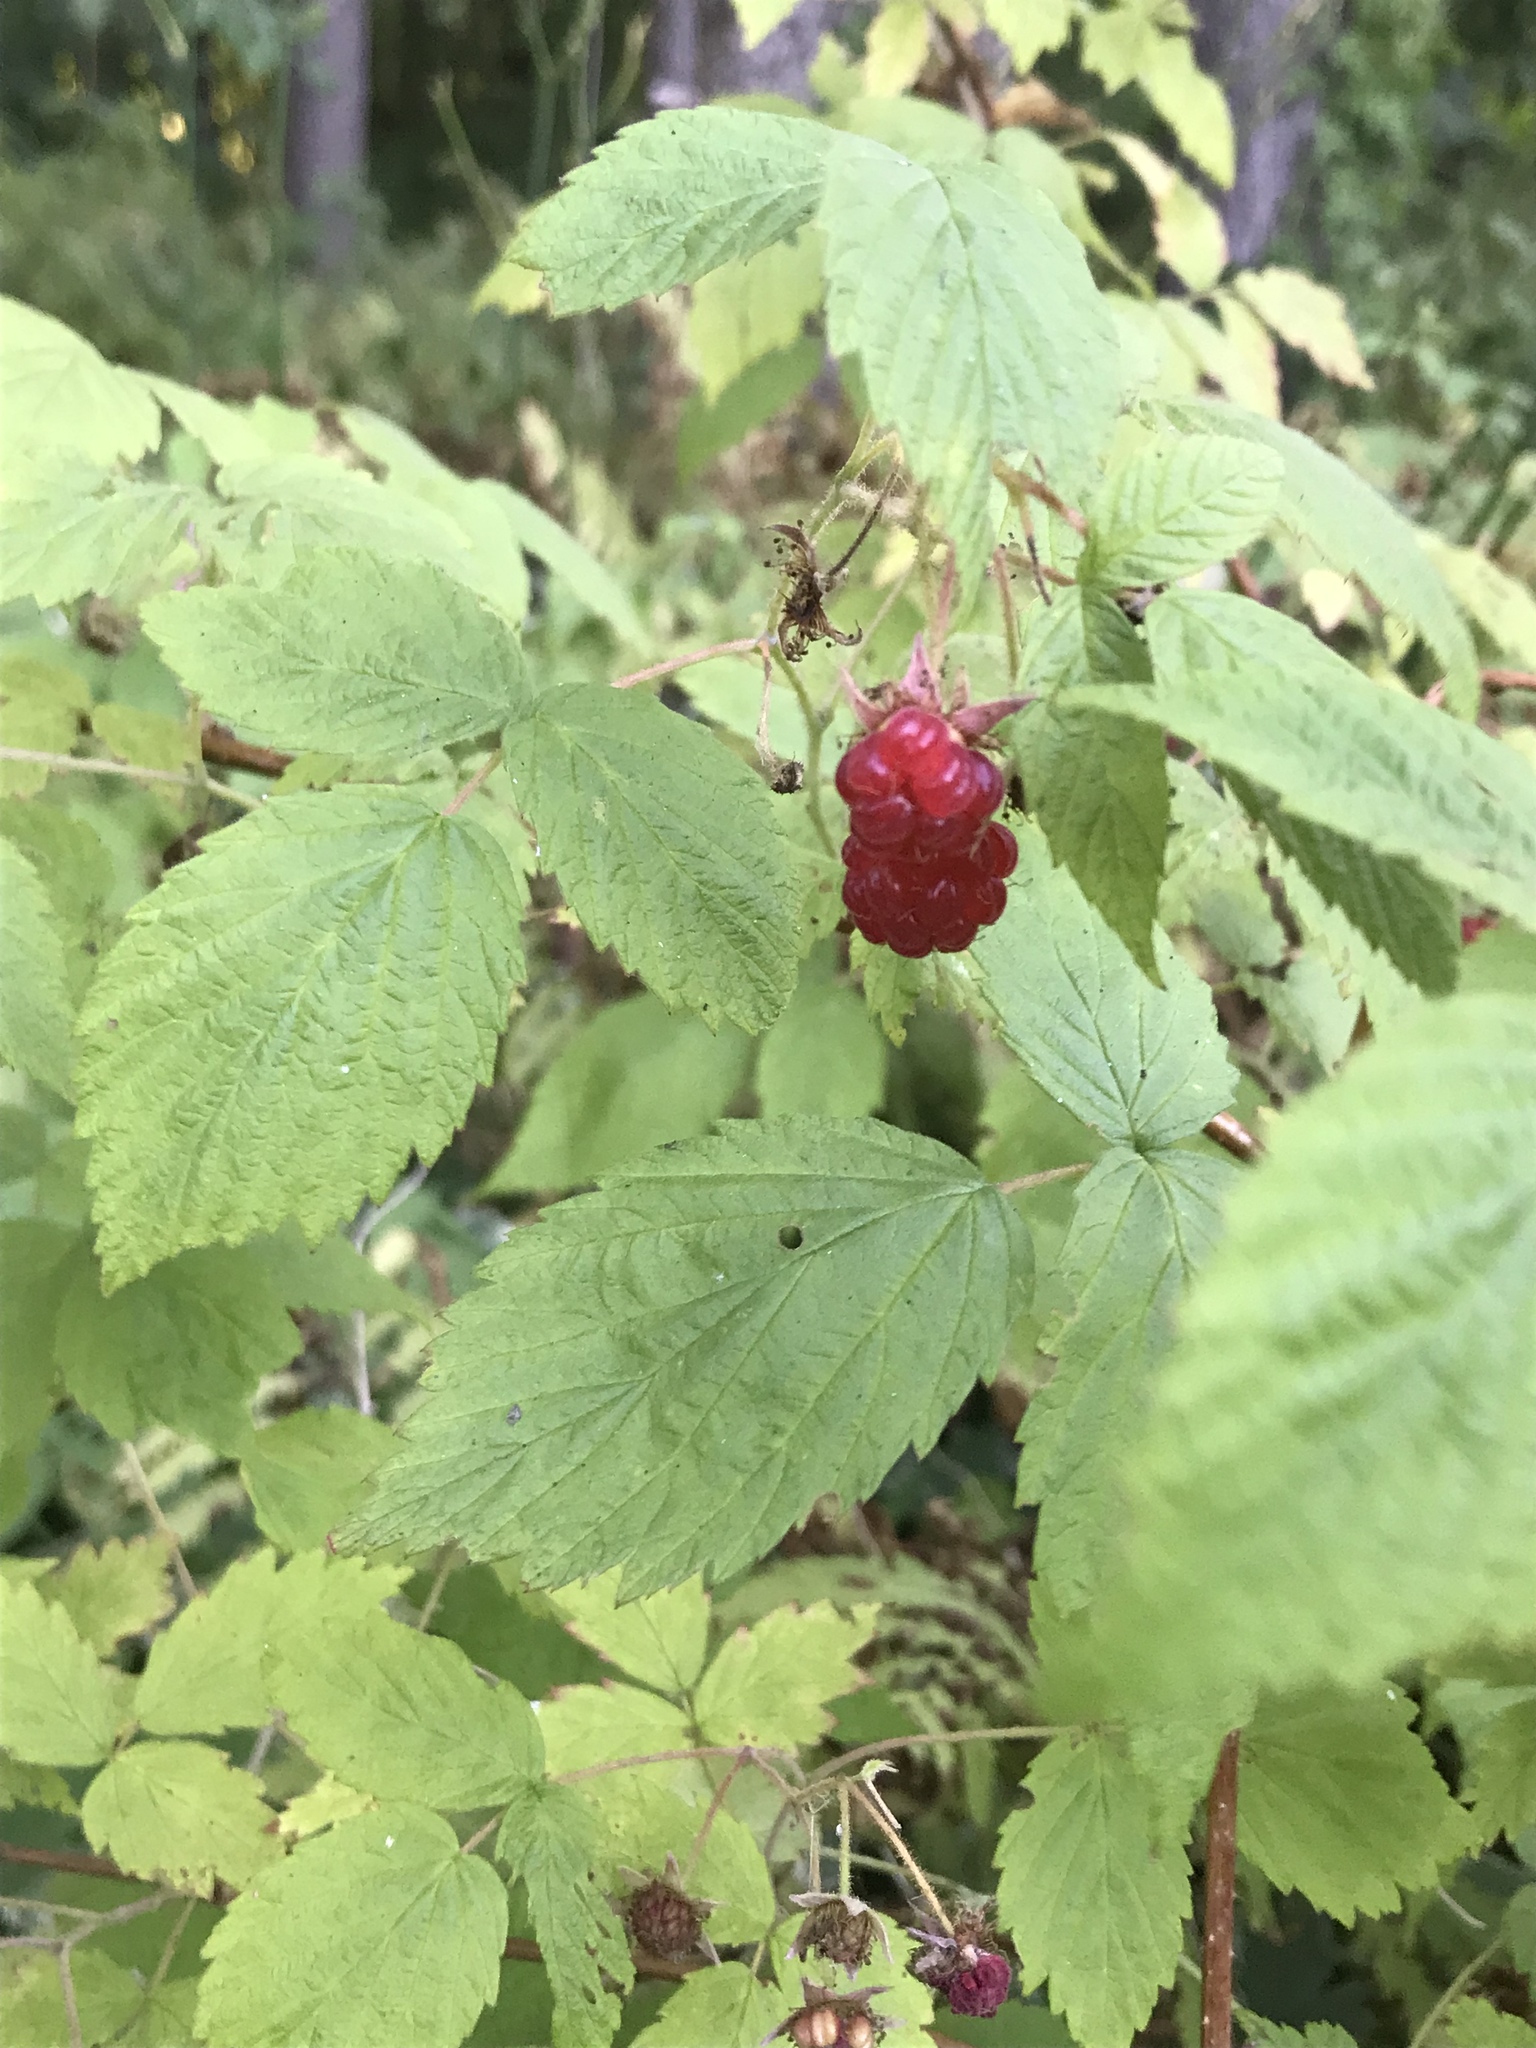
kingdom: Plantae
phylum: Tracheophyta
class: Magnoliopsida
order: Rosales
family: Rosaceae
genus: Rubus
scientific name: Rubus idaeus
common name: Raspberry
